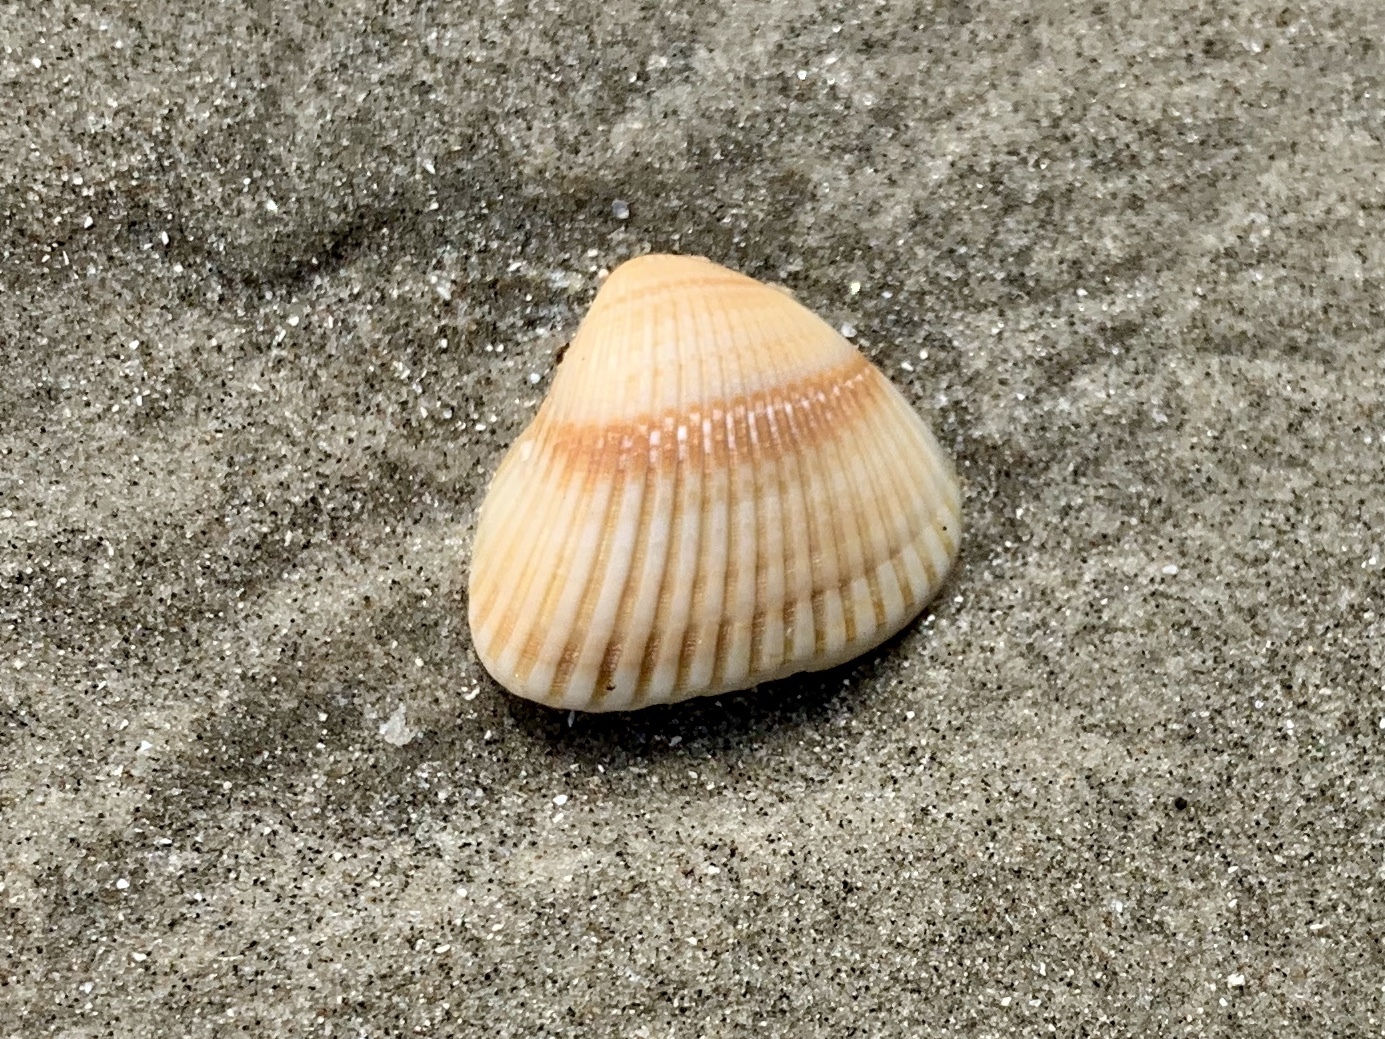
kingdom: Animalia
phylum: Mollusca
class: Bivalvia
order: Arcida
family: Noetiidae
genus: Noetia
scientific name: Noetia ponderosa
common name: Ponderous ark
